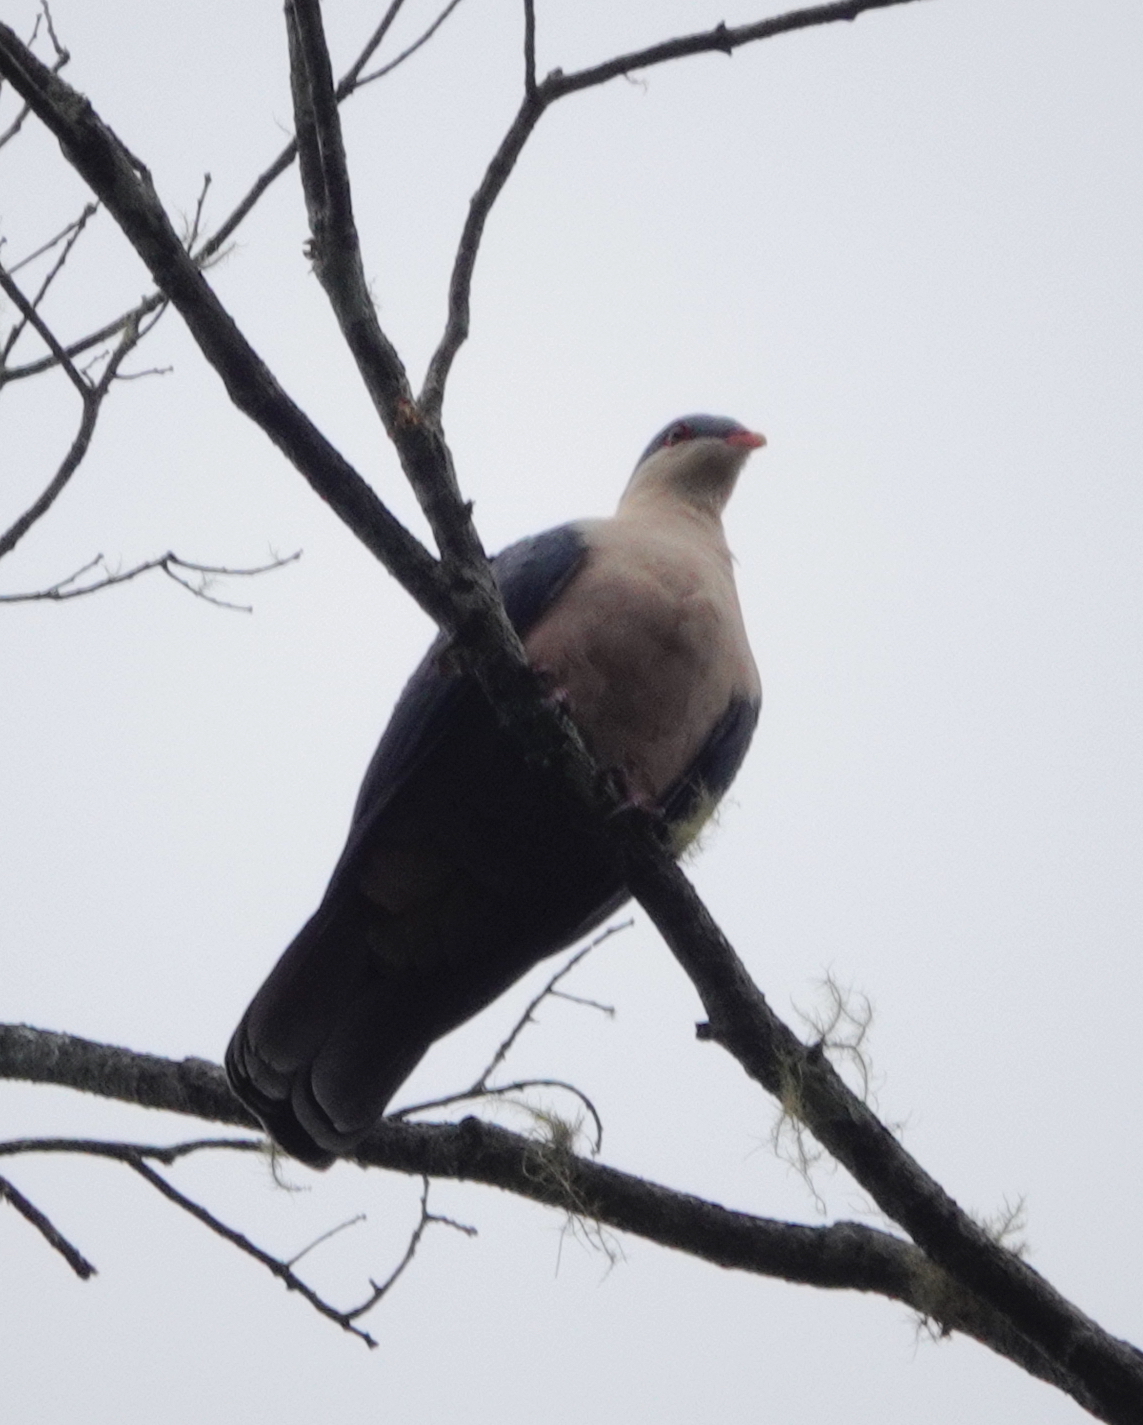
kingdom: Animalia
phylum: Chordata
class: Aves
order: Columbiformes
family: Columbidae
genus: Gymnophaps
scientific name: Gymnophaps mada
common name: Buru mountain-pigeon
